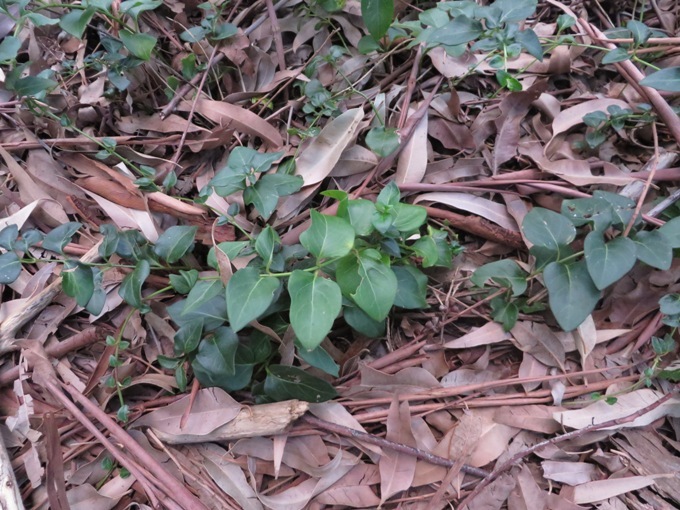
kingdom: Plantae
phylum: Tracheophyta
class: Magnoliopsida
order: Gentianales
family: Apocynaceae
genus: Vinca
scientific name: Vinca major
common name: Greater periwinkle
